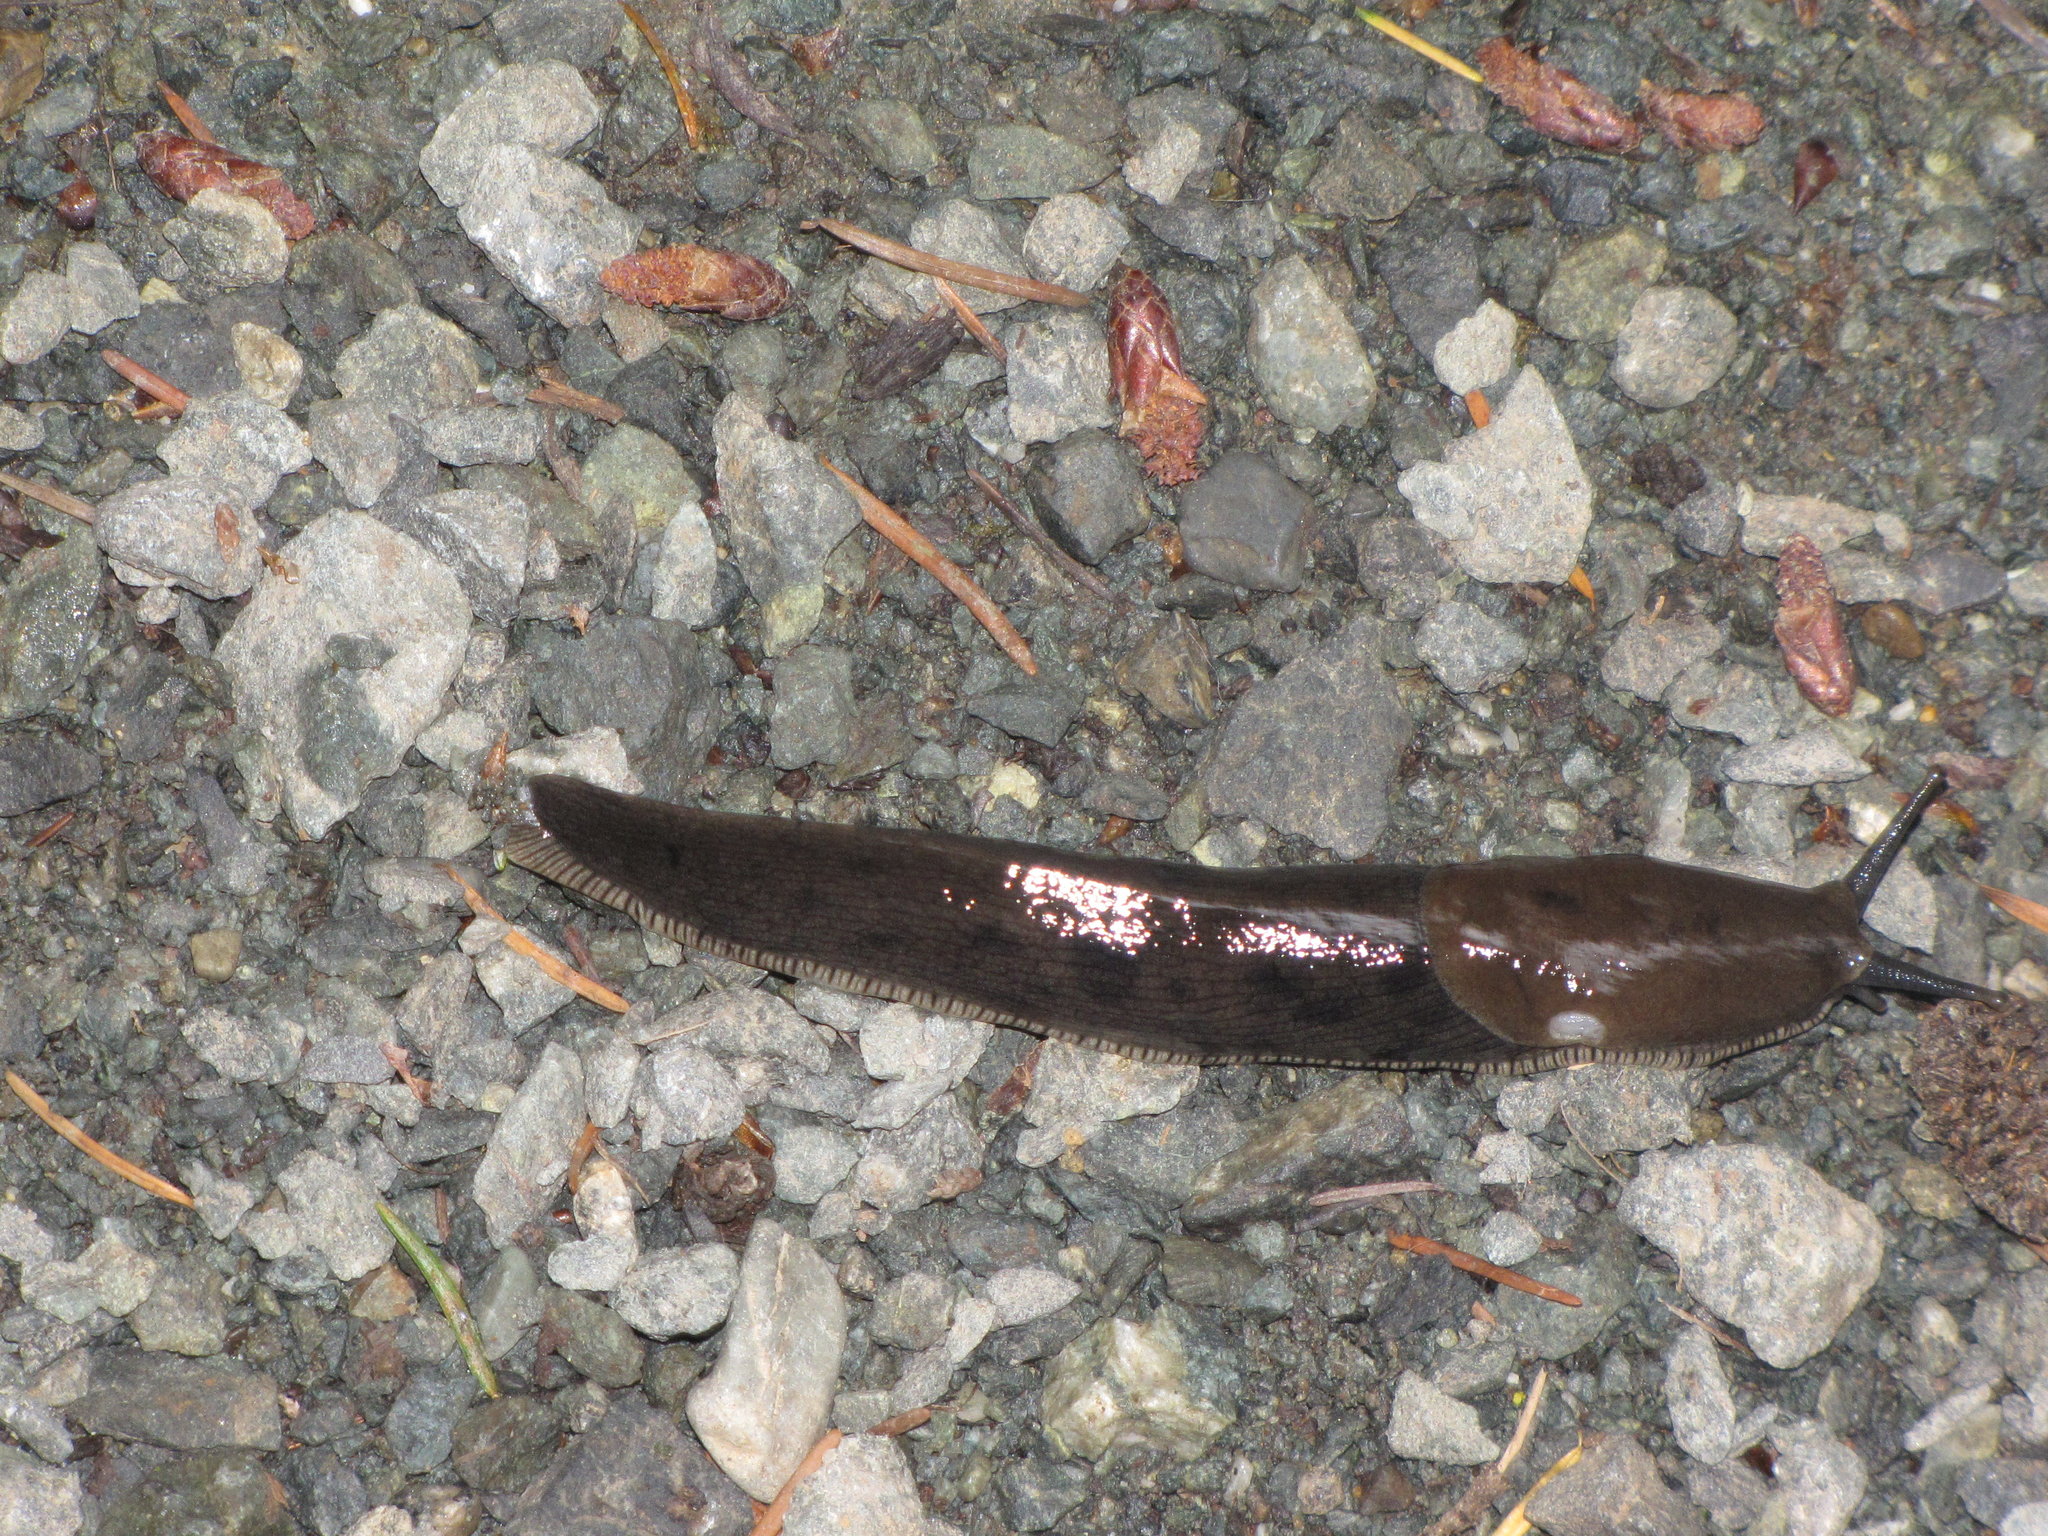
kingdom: Animalia
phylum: Mollusca
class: Gastropoda
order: Stylommatophora
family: Ariolimacidae
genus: Ariolimax
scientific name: Ariolimax columbianus
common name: Pacific banana slug
